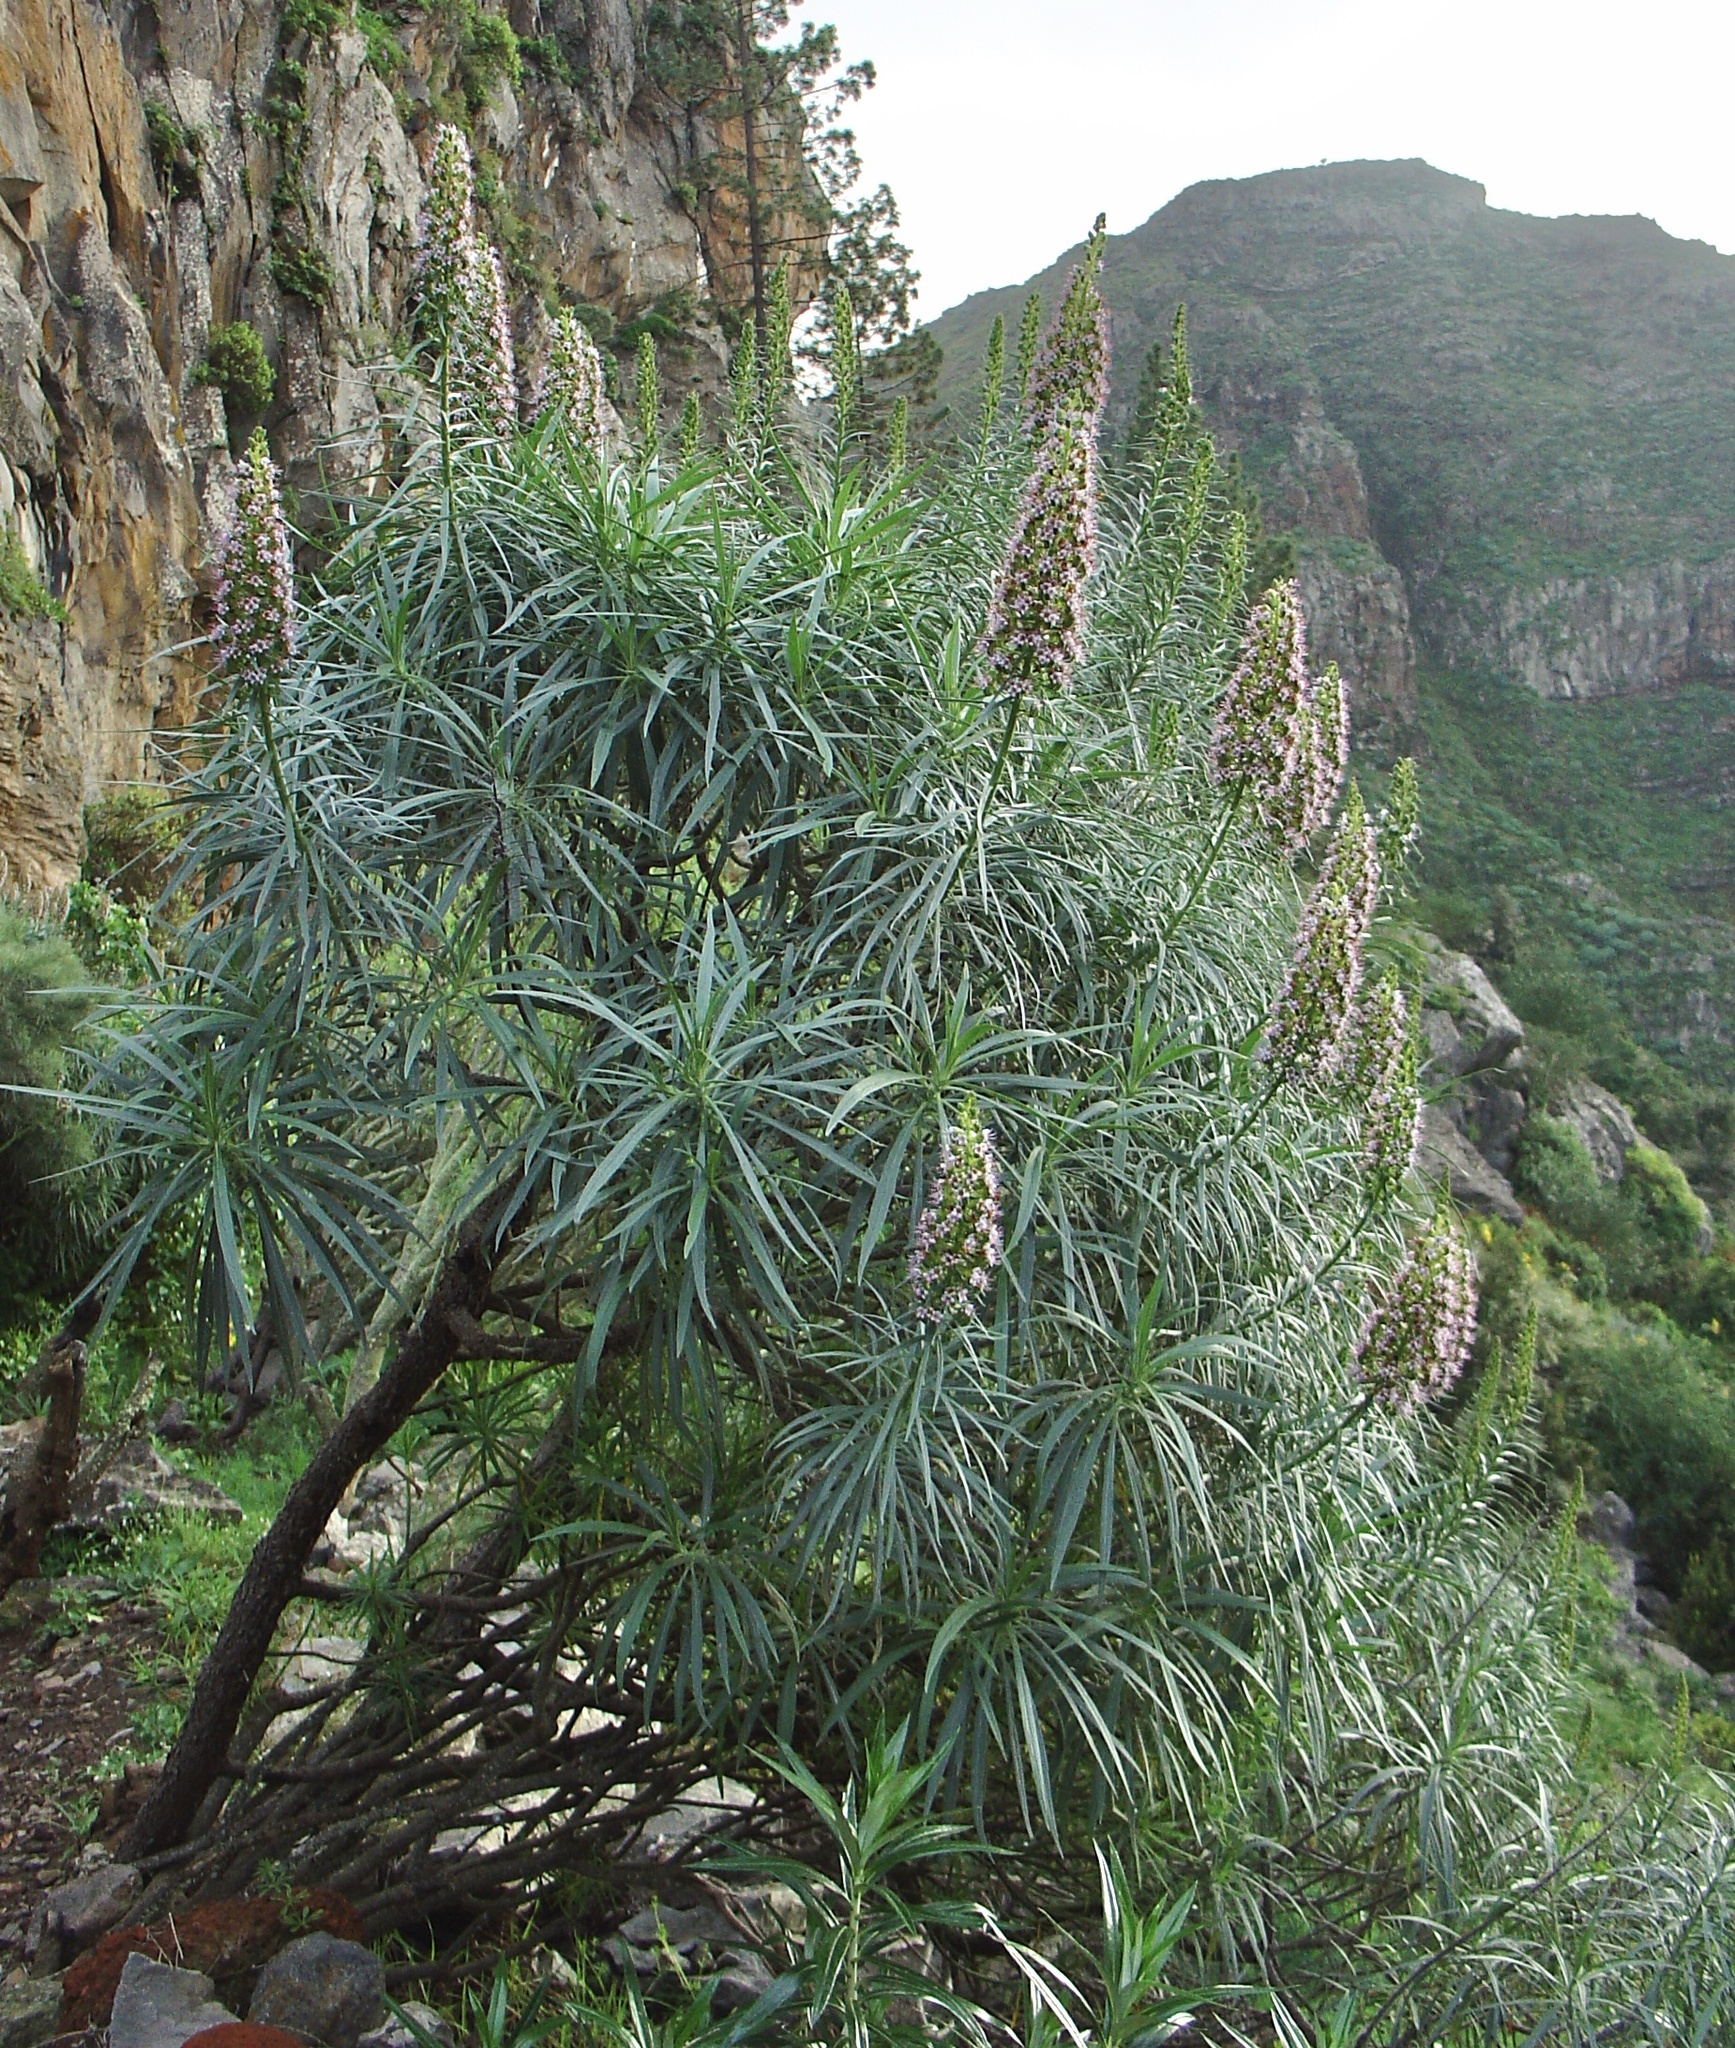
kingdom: Plantae
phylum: Tracheophyta
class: Magnoliopsida
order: Boraginales
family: Boraginaceae
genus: Echium
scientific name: Echium virescens
